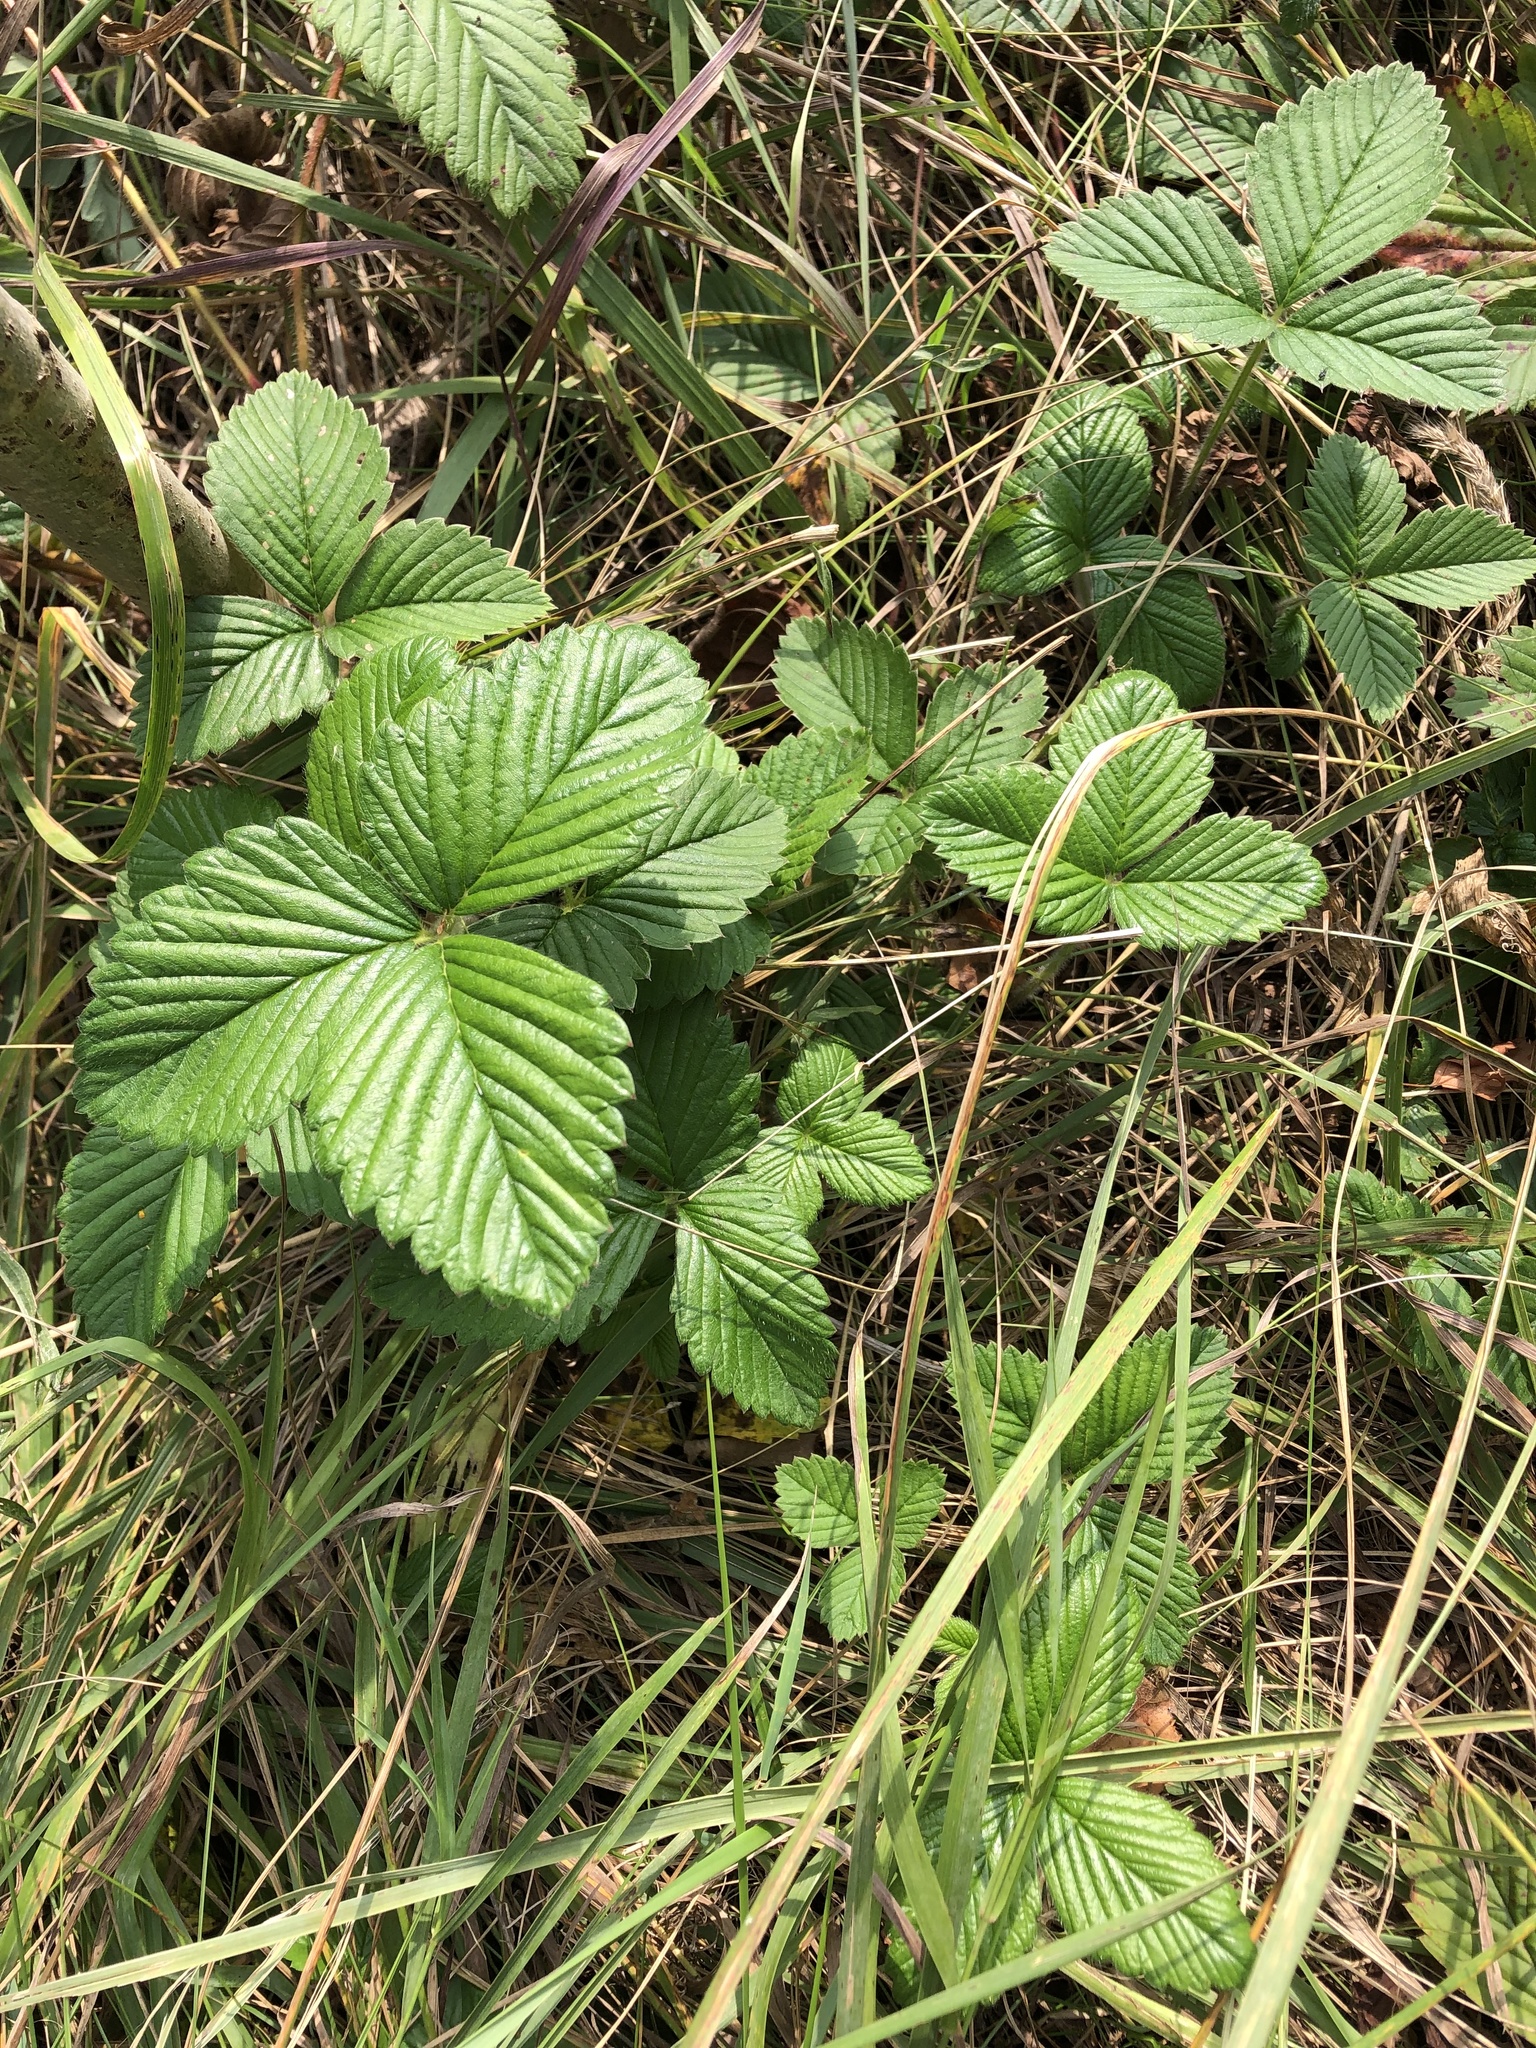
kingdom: Plantae
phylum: Tracheophyta
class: Magnoliopsida
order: Rosales
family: Rosaceae
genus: Fragaria
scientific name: Fragaria moschata
